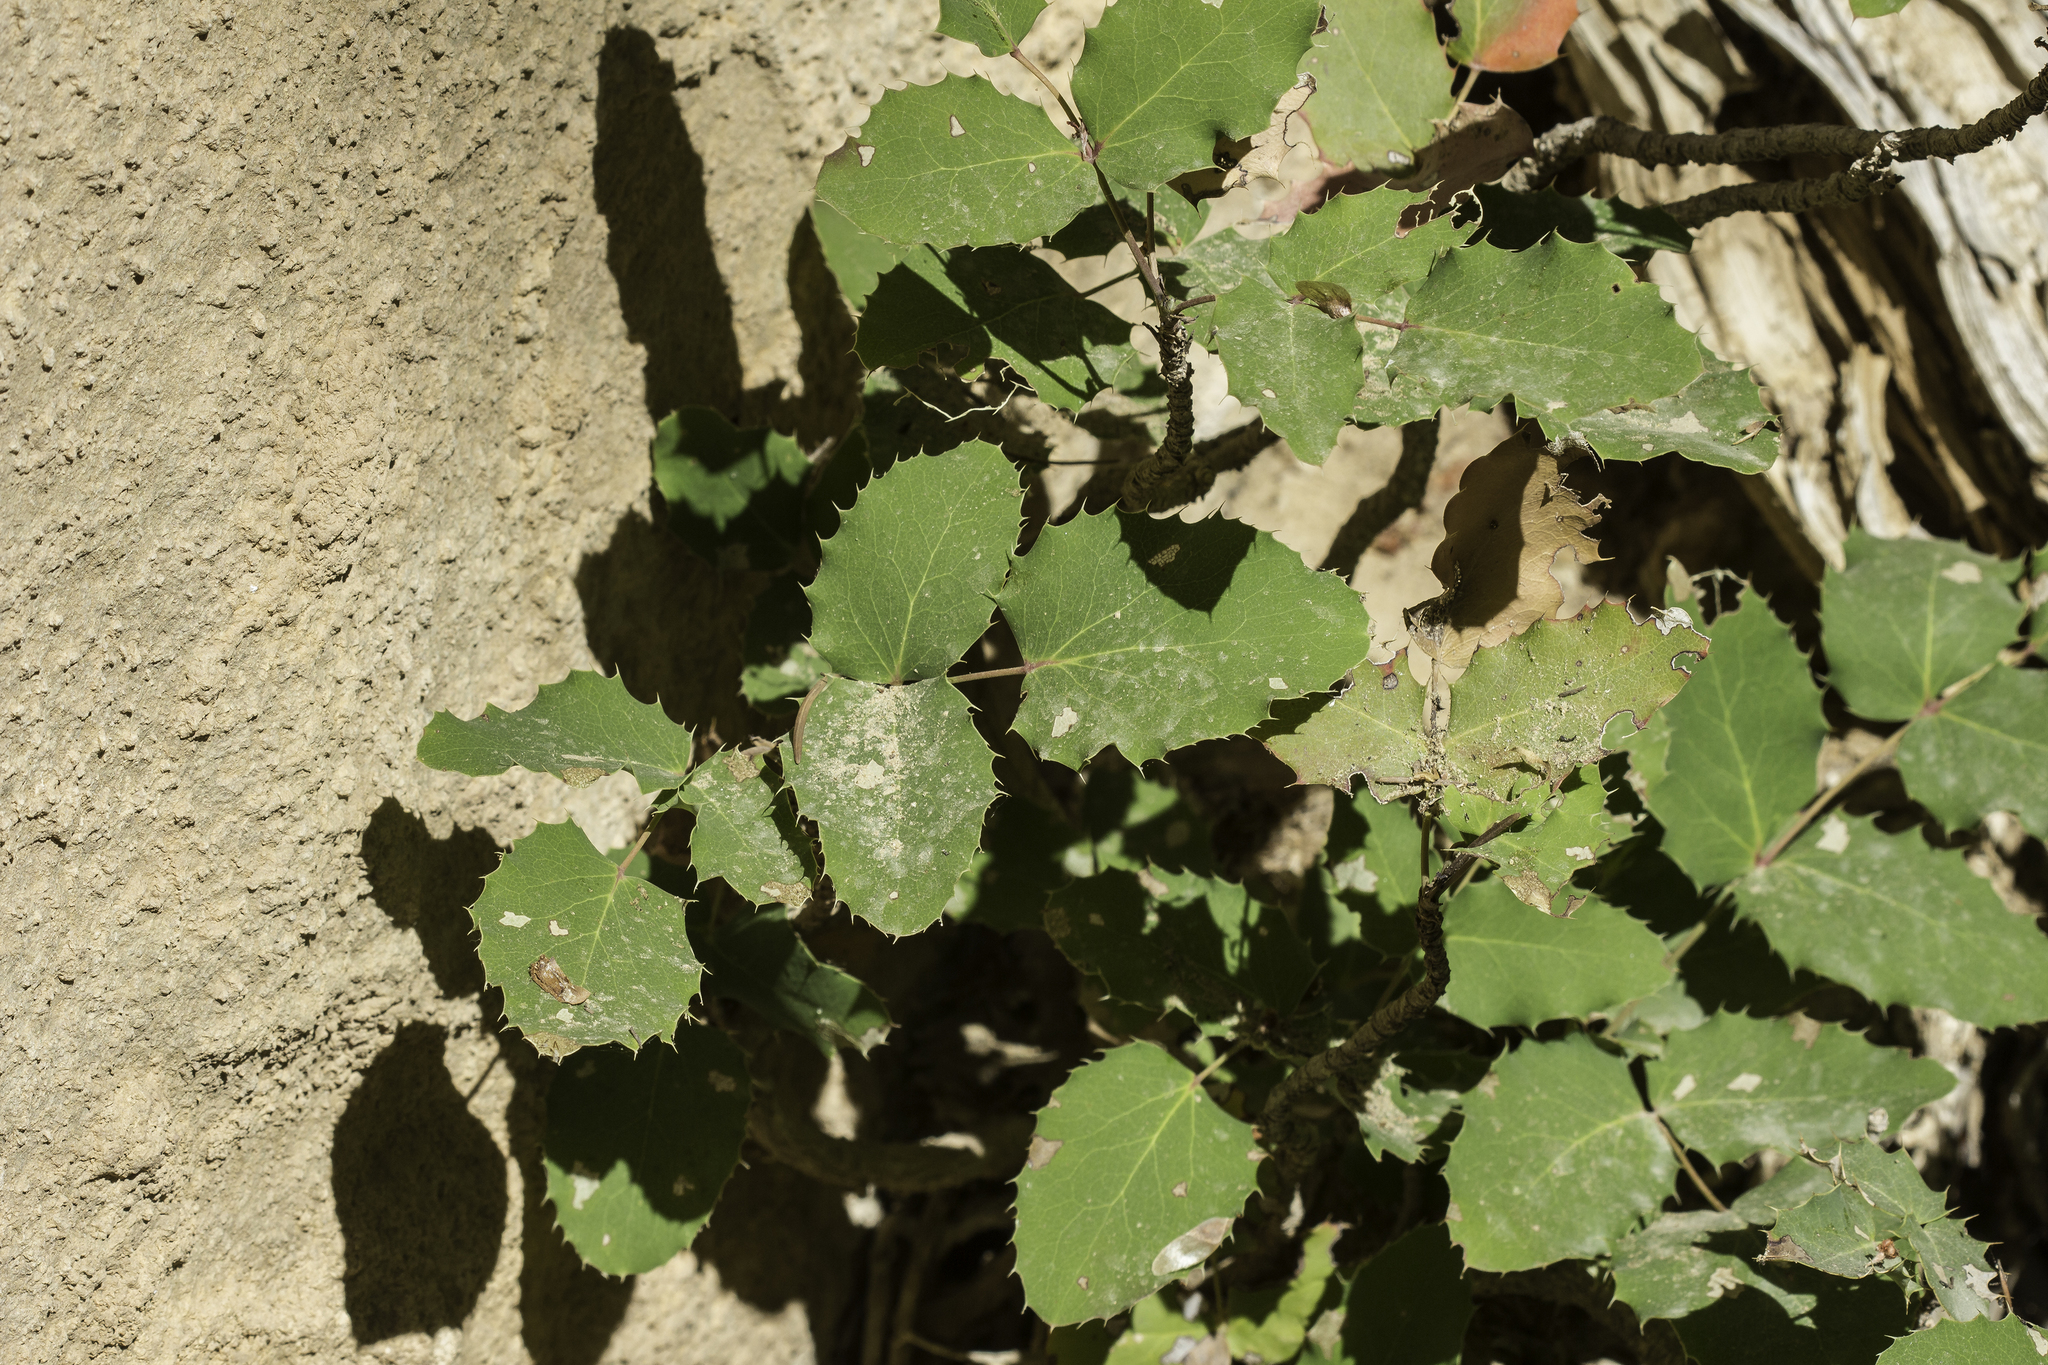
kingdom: Plantae
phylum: Tracheophyta
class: Magnoliopsida
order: Ranunculales
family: Berberidaceae
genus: Mahonia
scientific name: Mahonia repens
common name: Creeping oregon-grape
